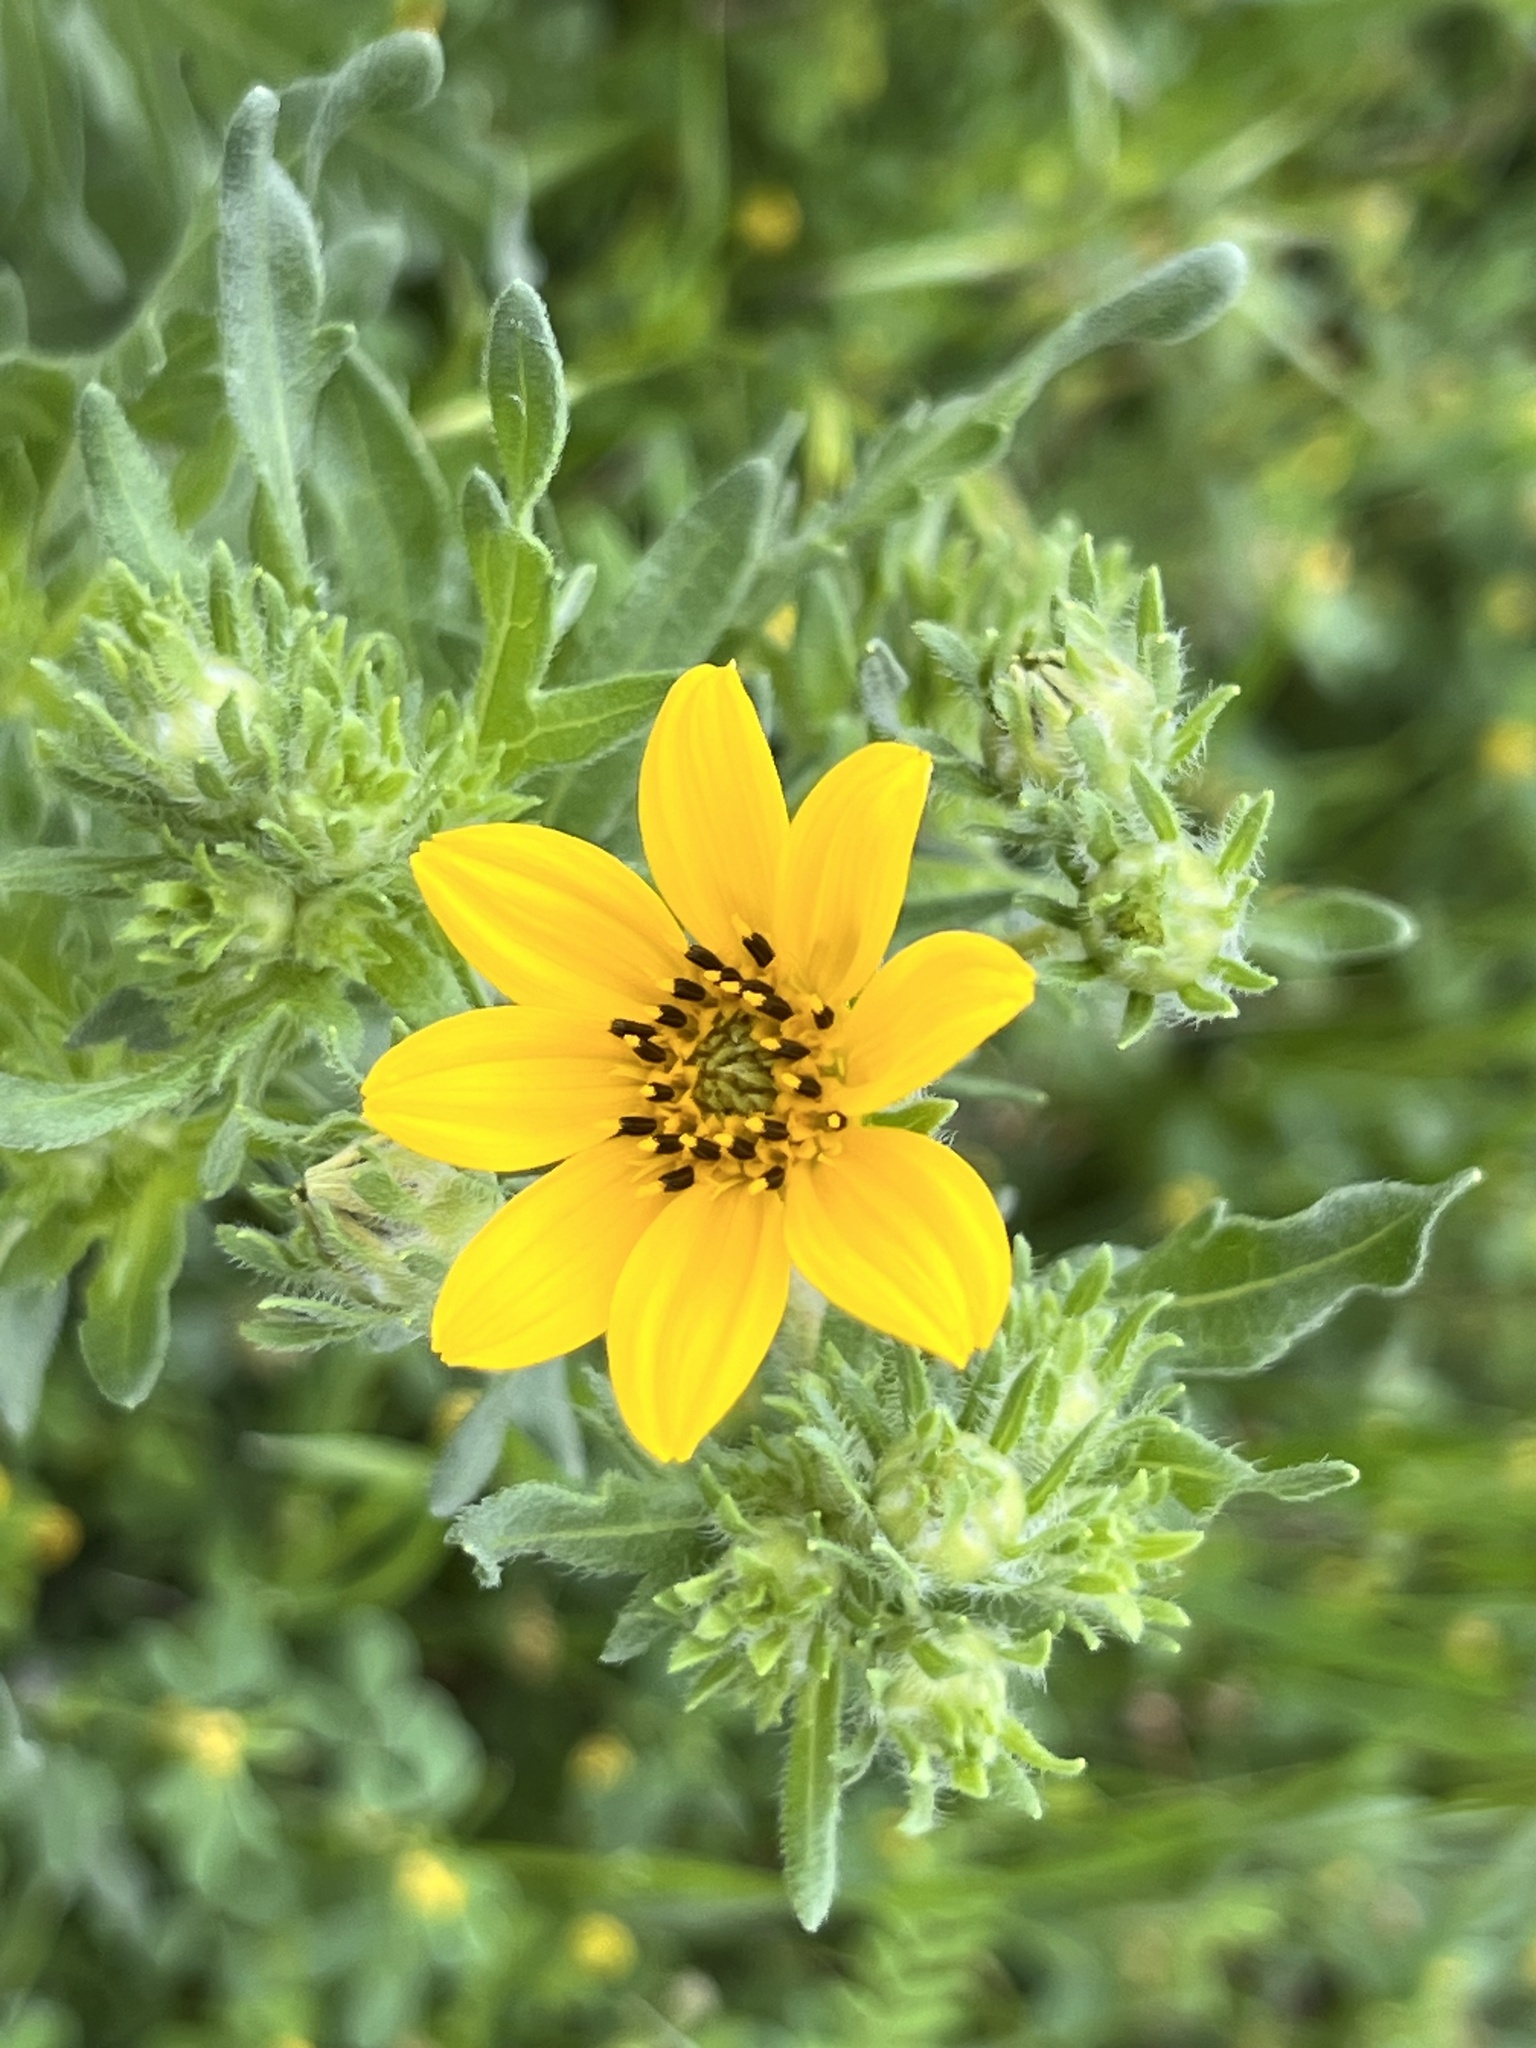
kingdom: Plantae
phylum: Tracheophyta
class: Magnoliopsida
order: Asterales
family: Asteraceae
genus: Engelmannia
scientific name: Engelmannia peristenia
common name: Engelmann's daisy
